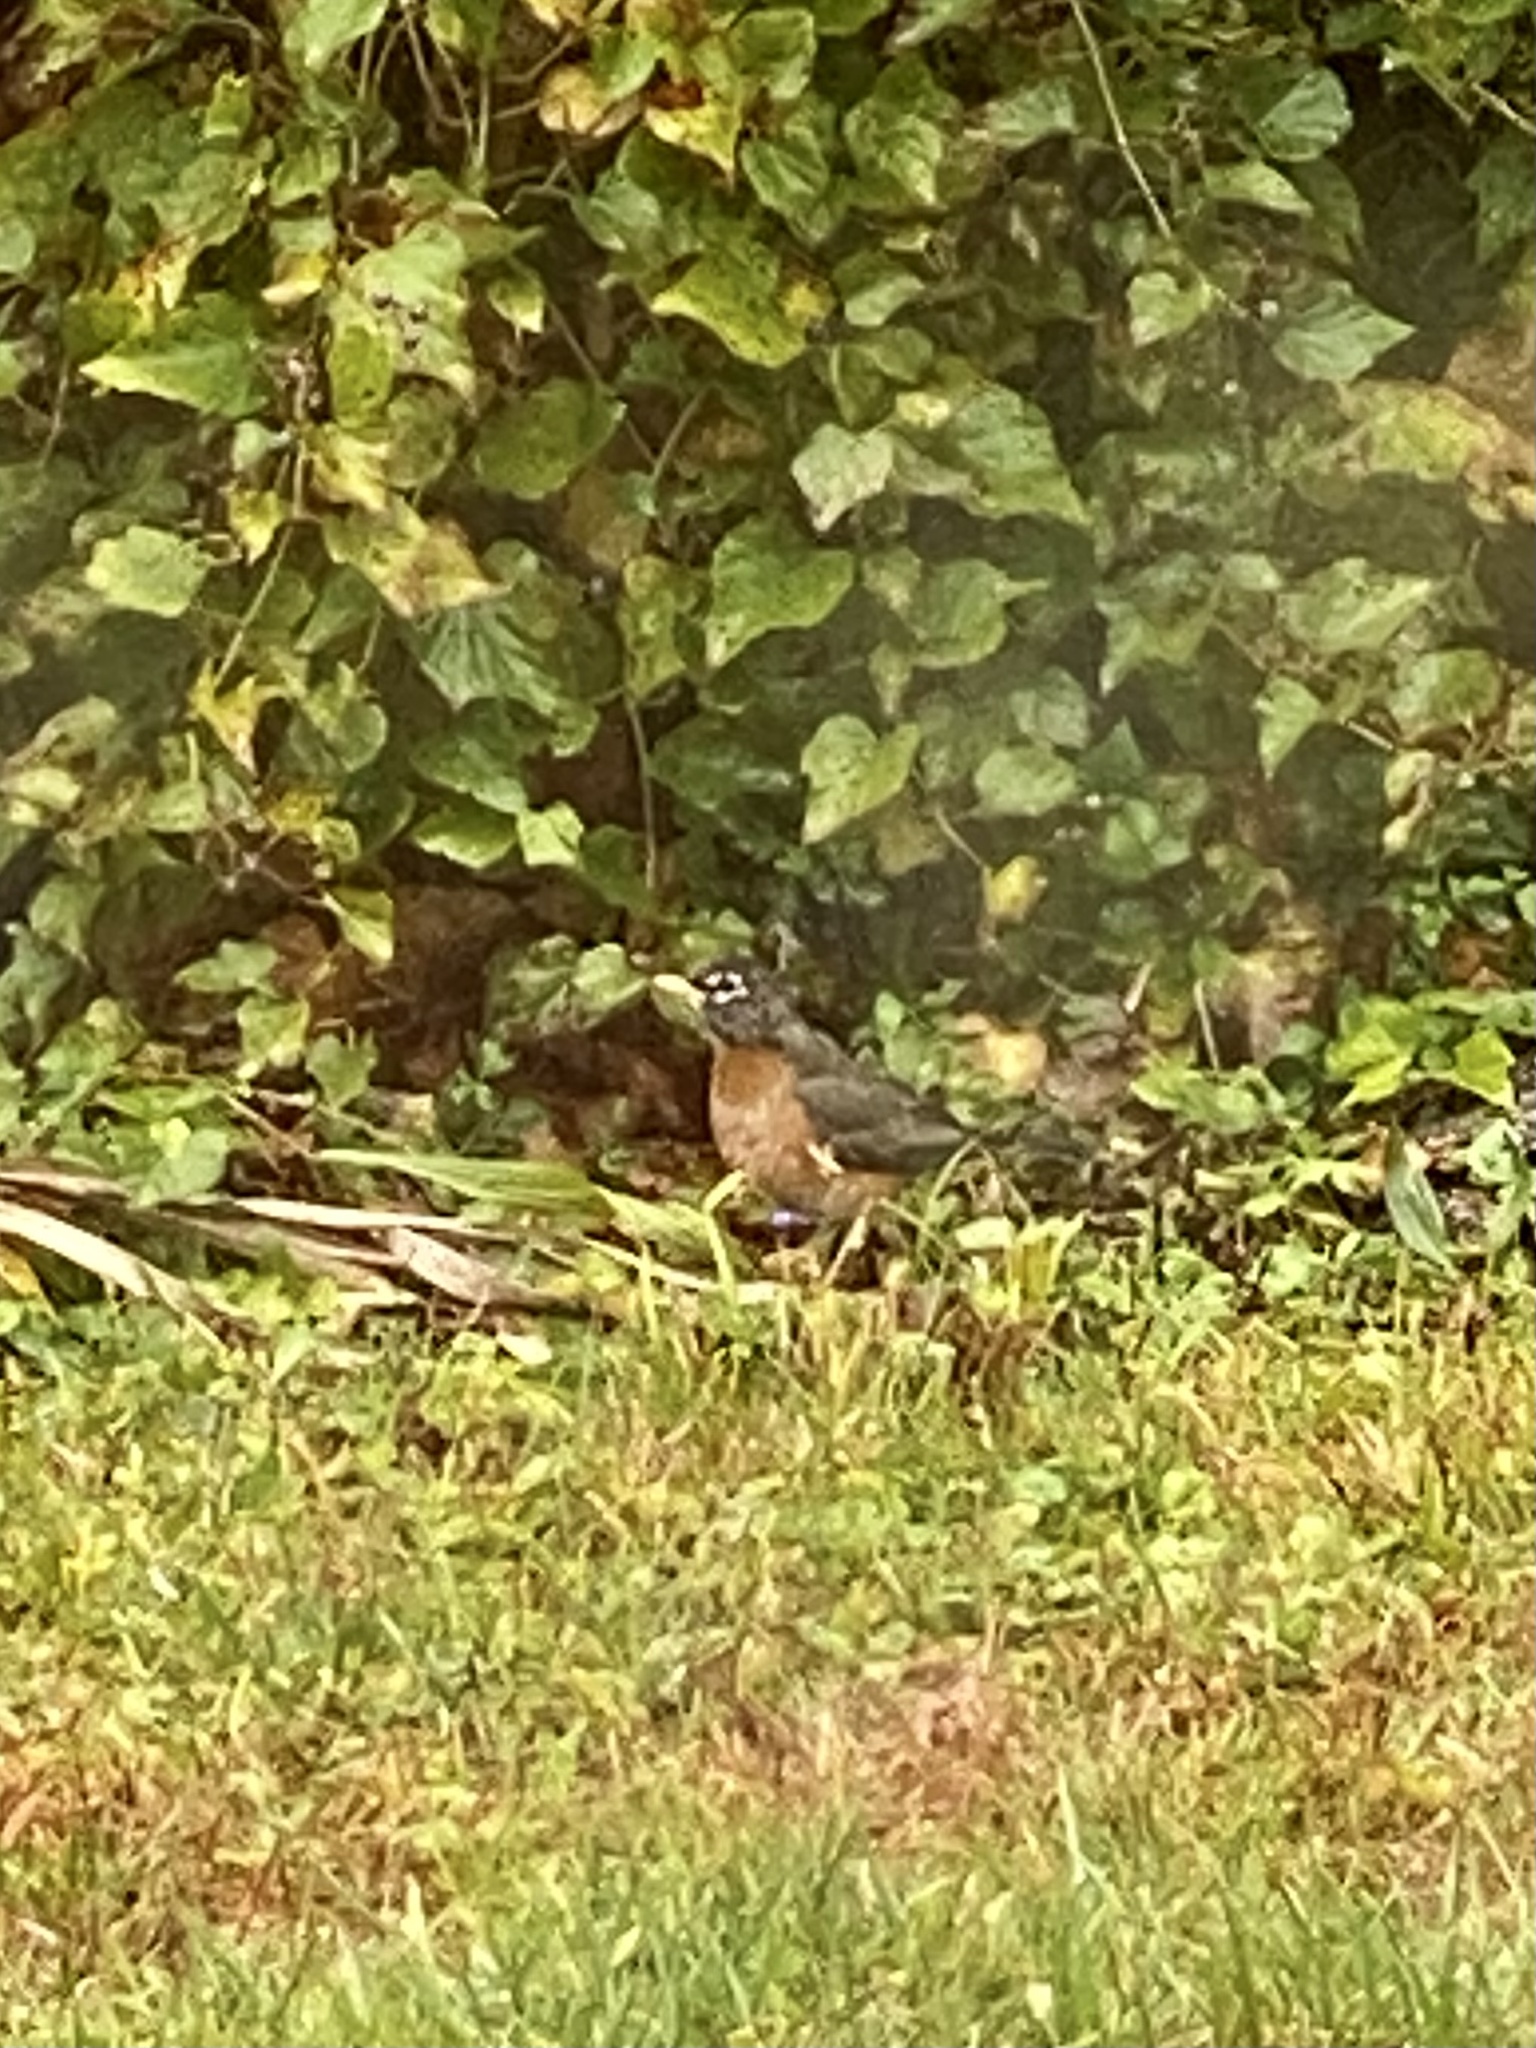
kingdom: Animalia
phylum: Chordata
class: Aves
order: Passeriformes
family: Turdidae
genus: Turdus
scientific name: Turdus migratorius
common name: American robin
